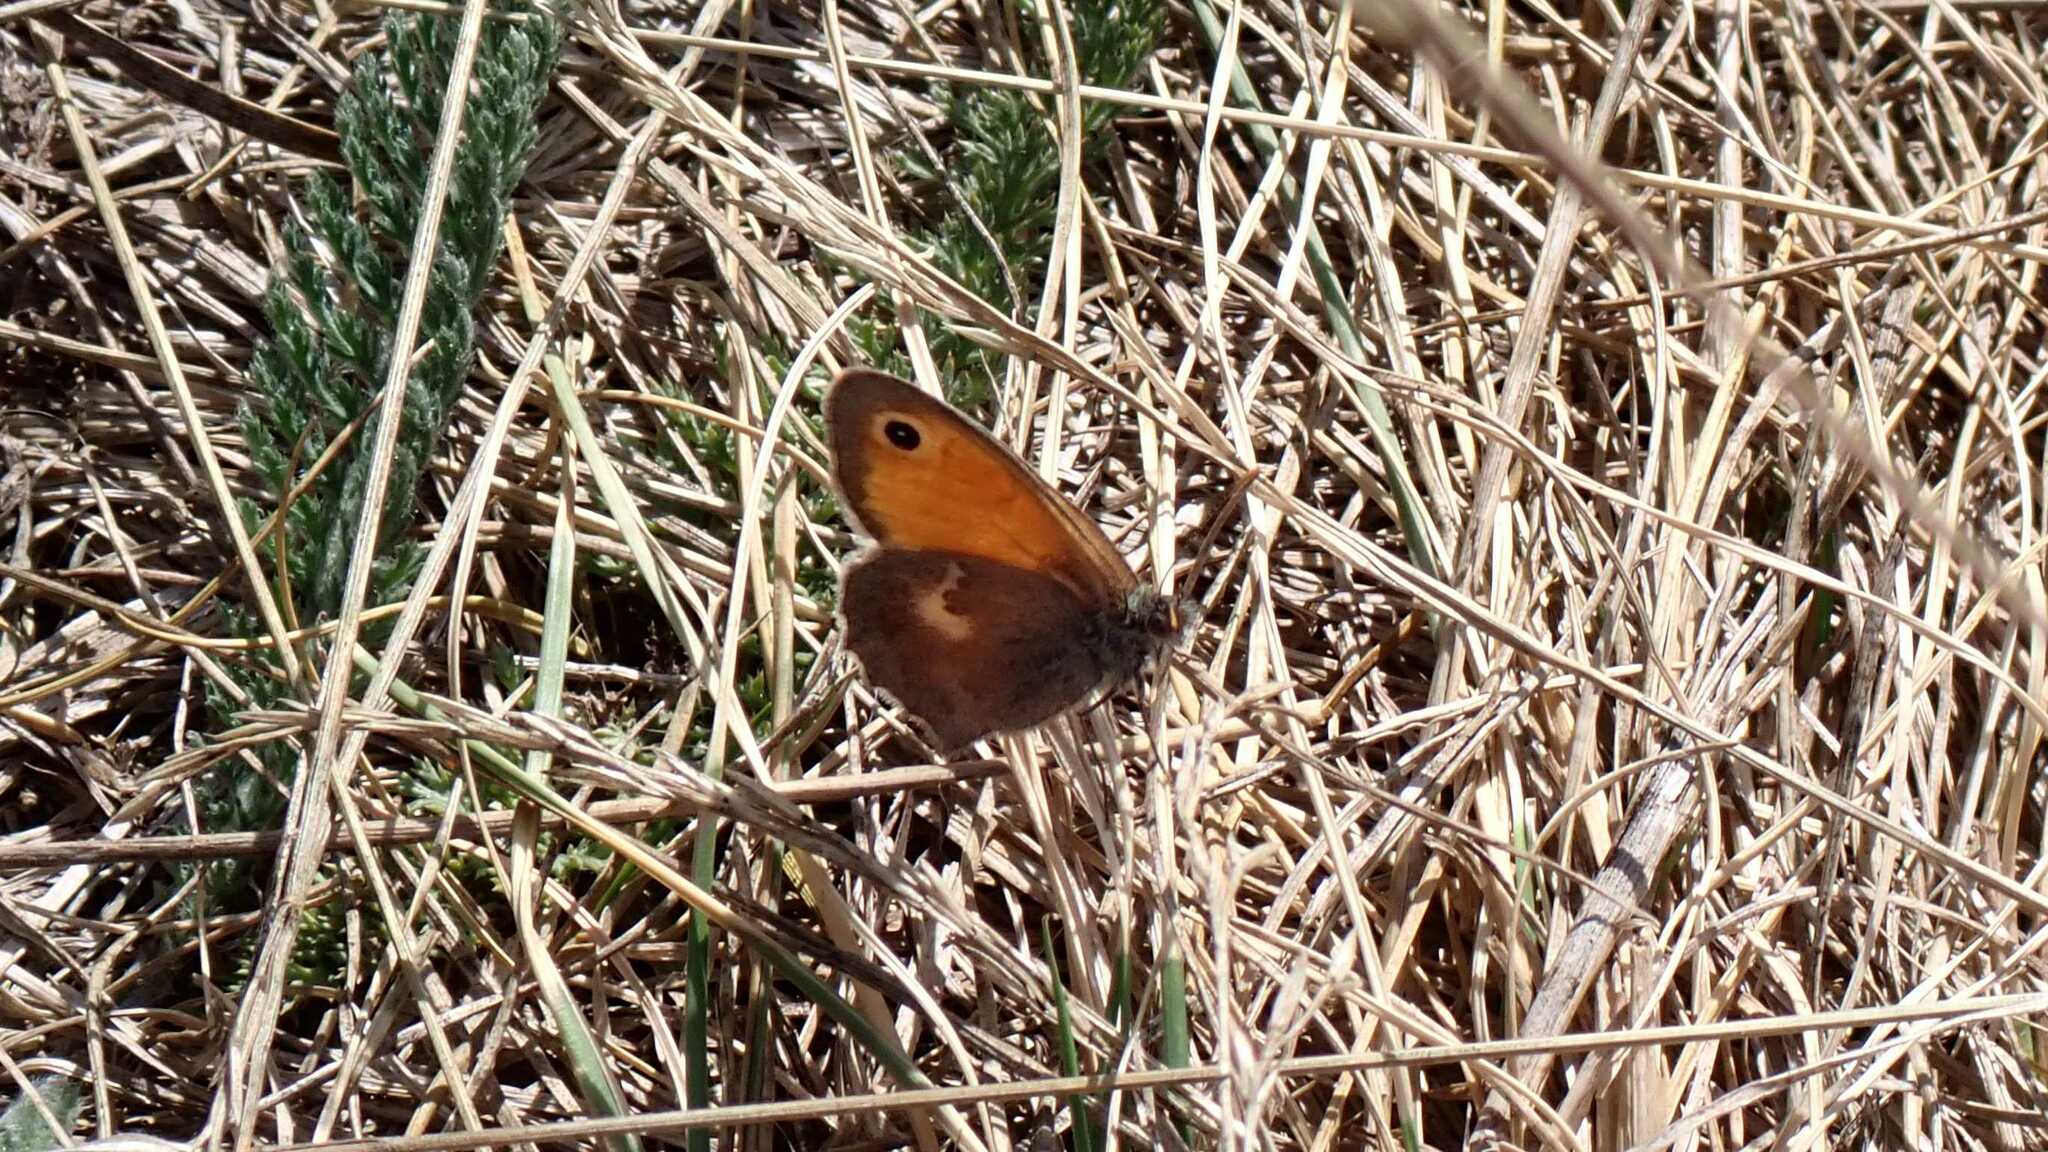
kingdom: Animalia
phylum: Arthropoda
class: Insecta
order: Lepidoptera
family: Nymphalidae
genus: Coenonympha
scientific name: Coenonympha pamphilus
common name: Small heath
